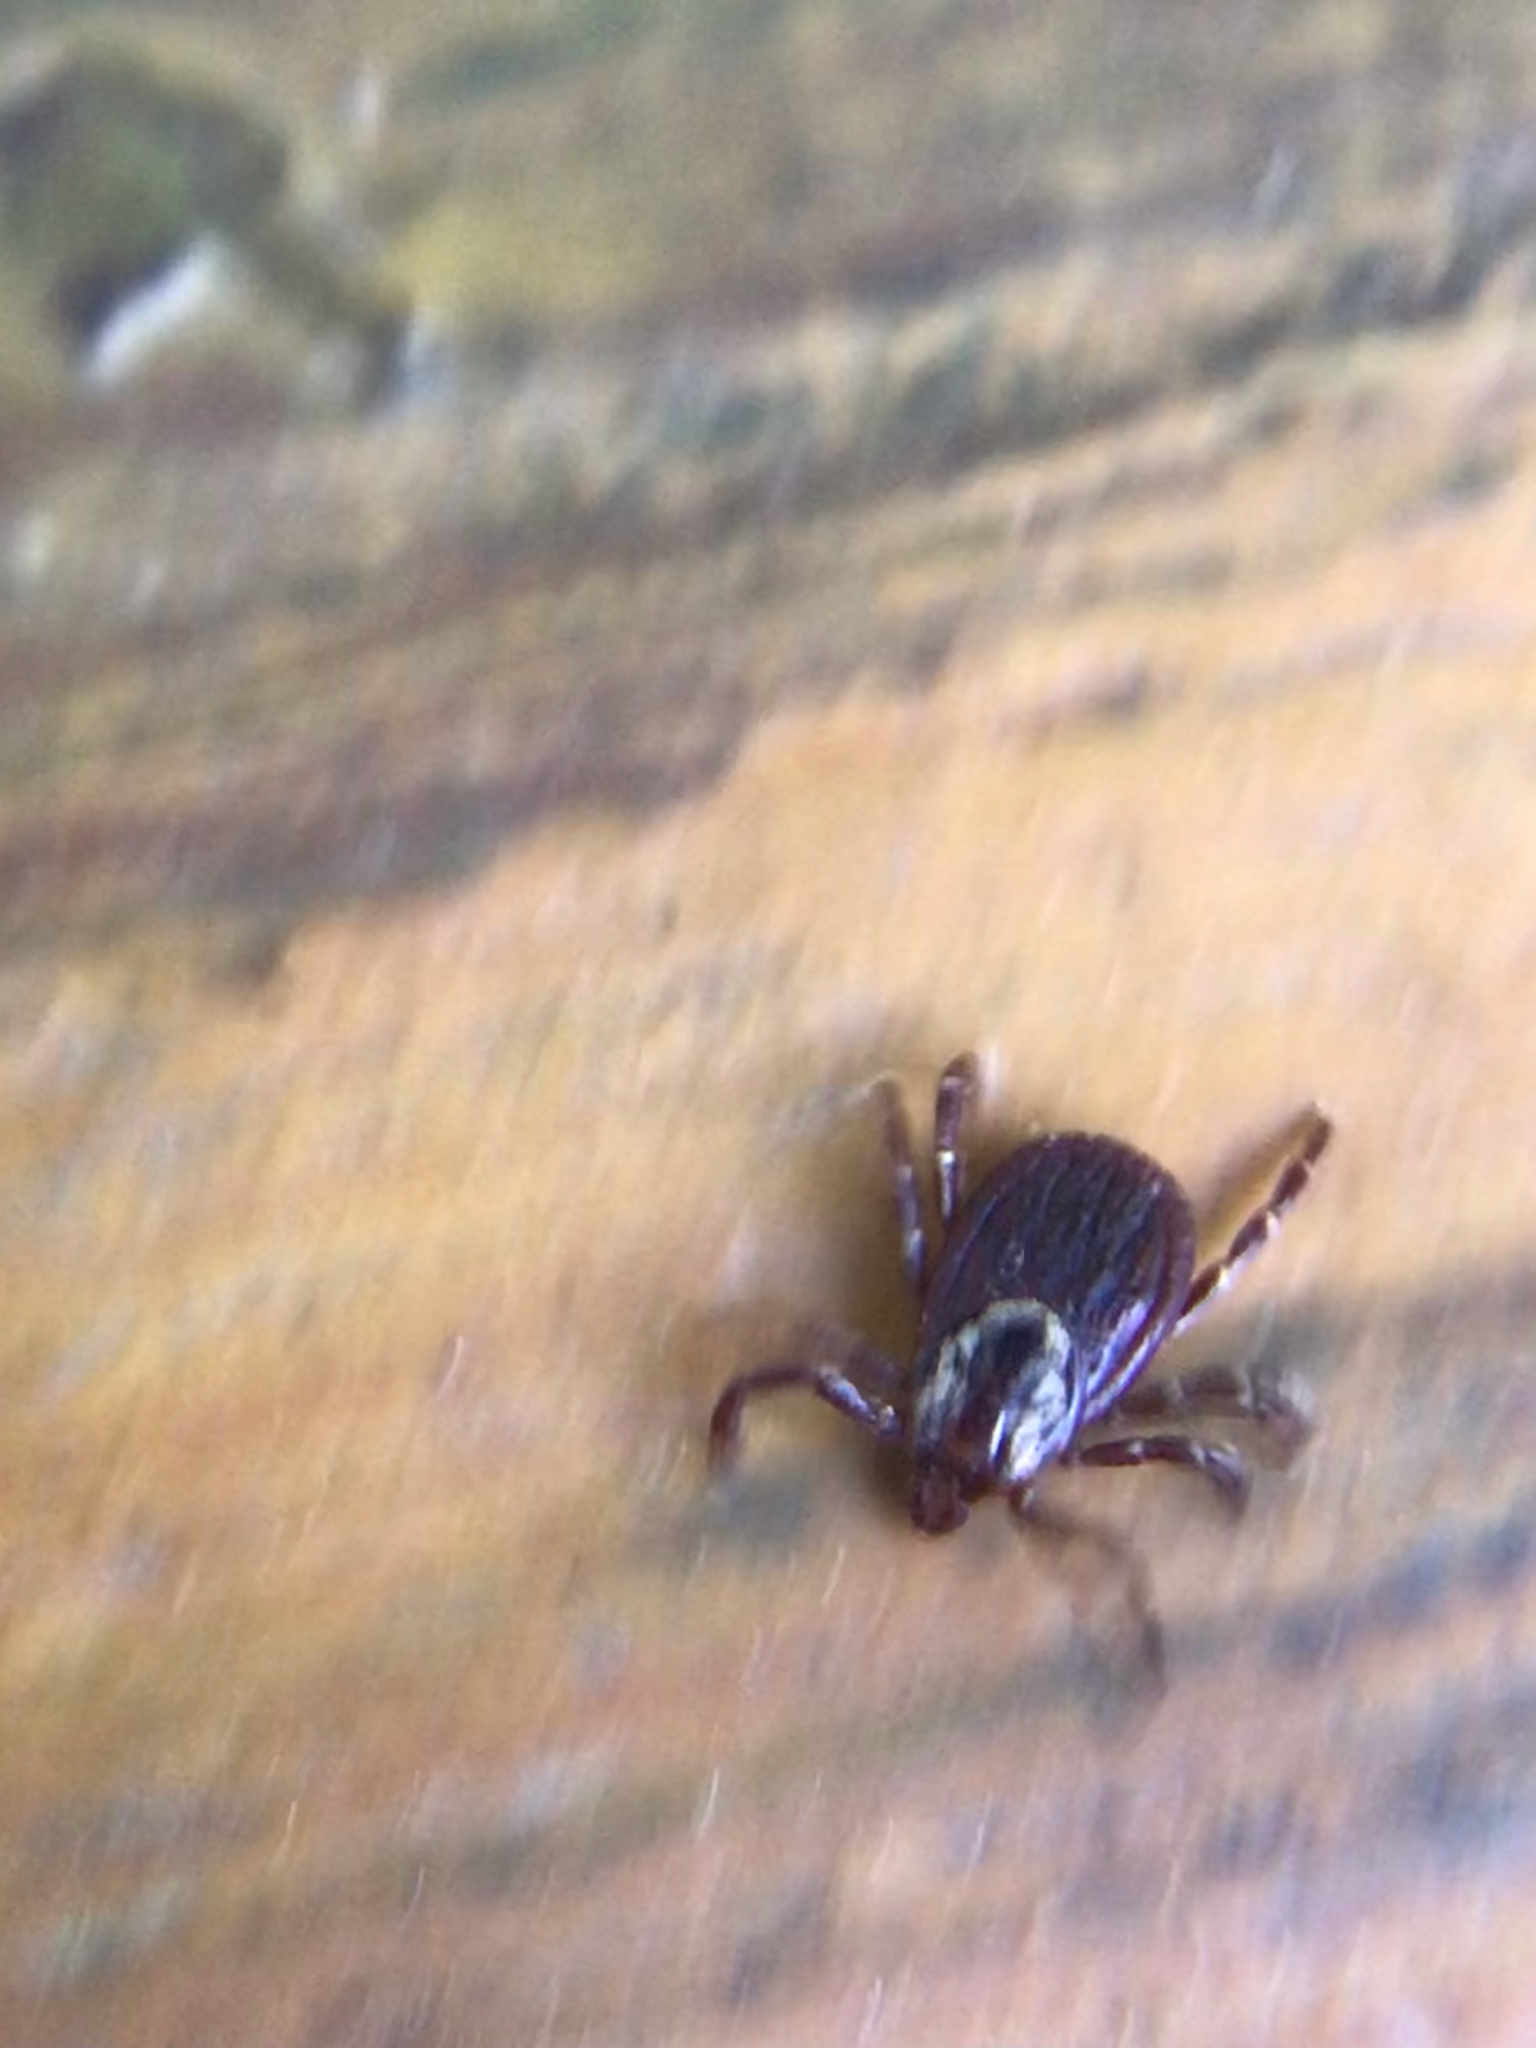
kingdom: Animalia
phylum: Arthropoda
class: Arachnida
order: Ixodida
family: Ixodidae
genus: Dermacentor
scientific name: Dermacentor variabilis
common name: American dog tick
